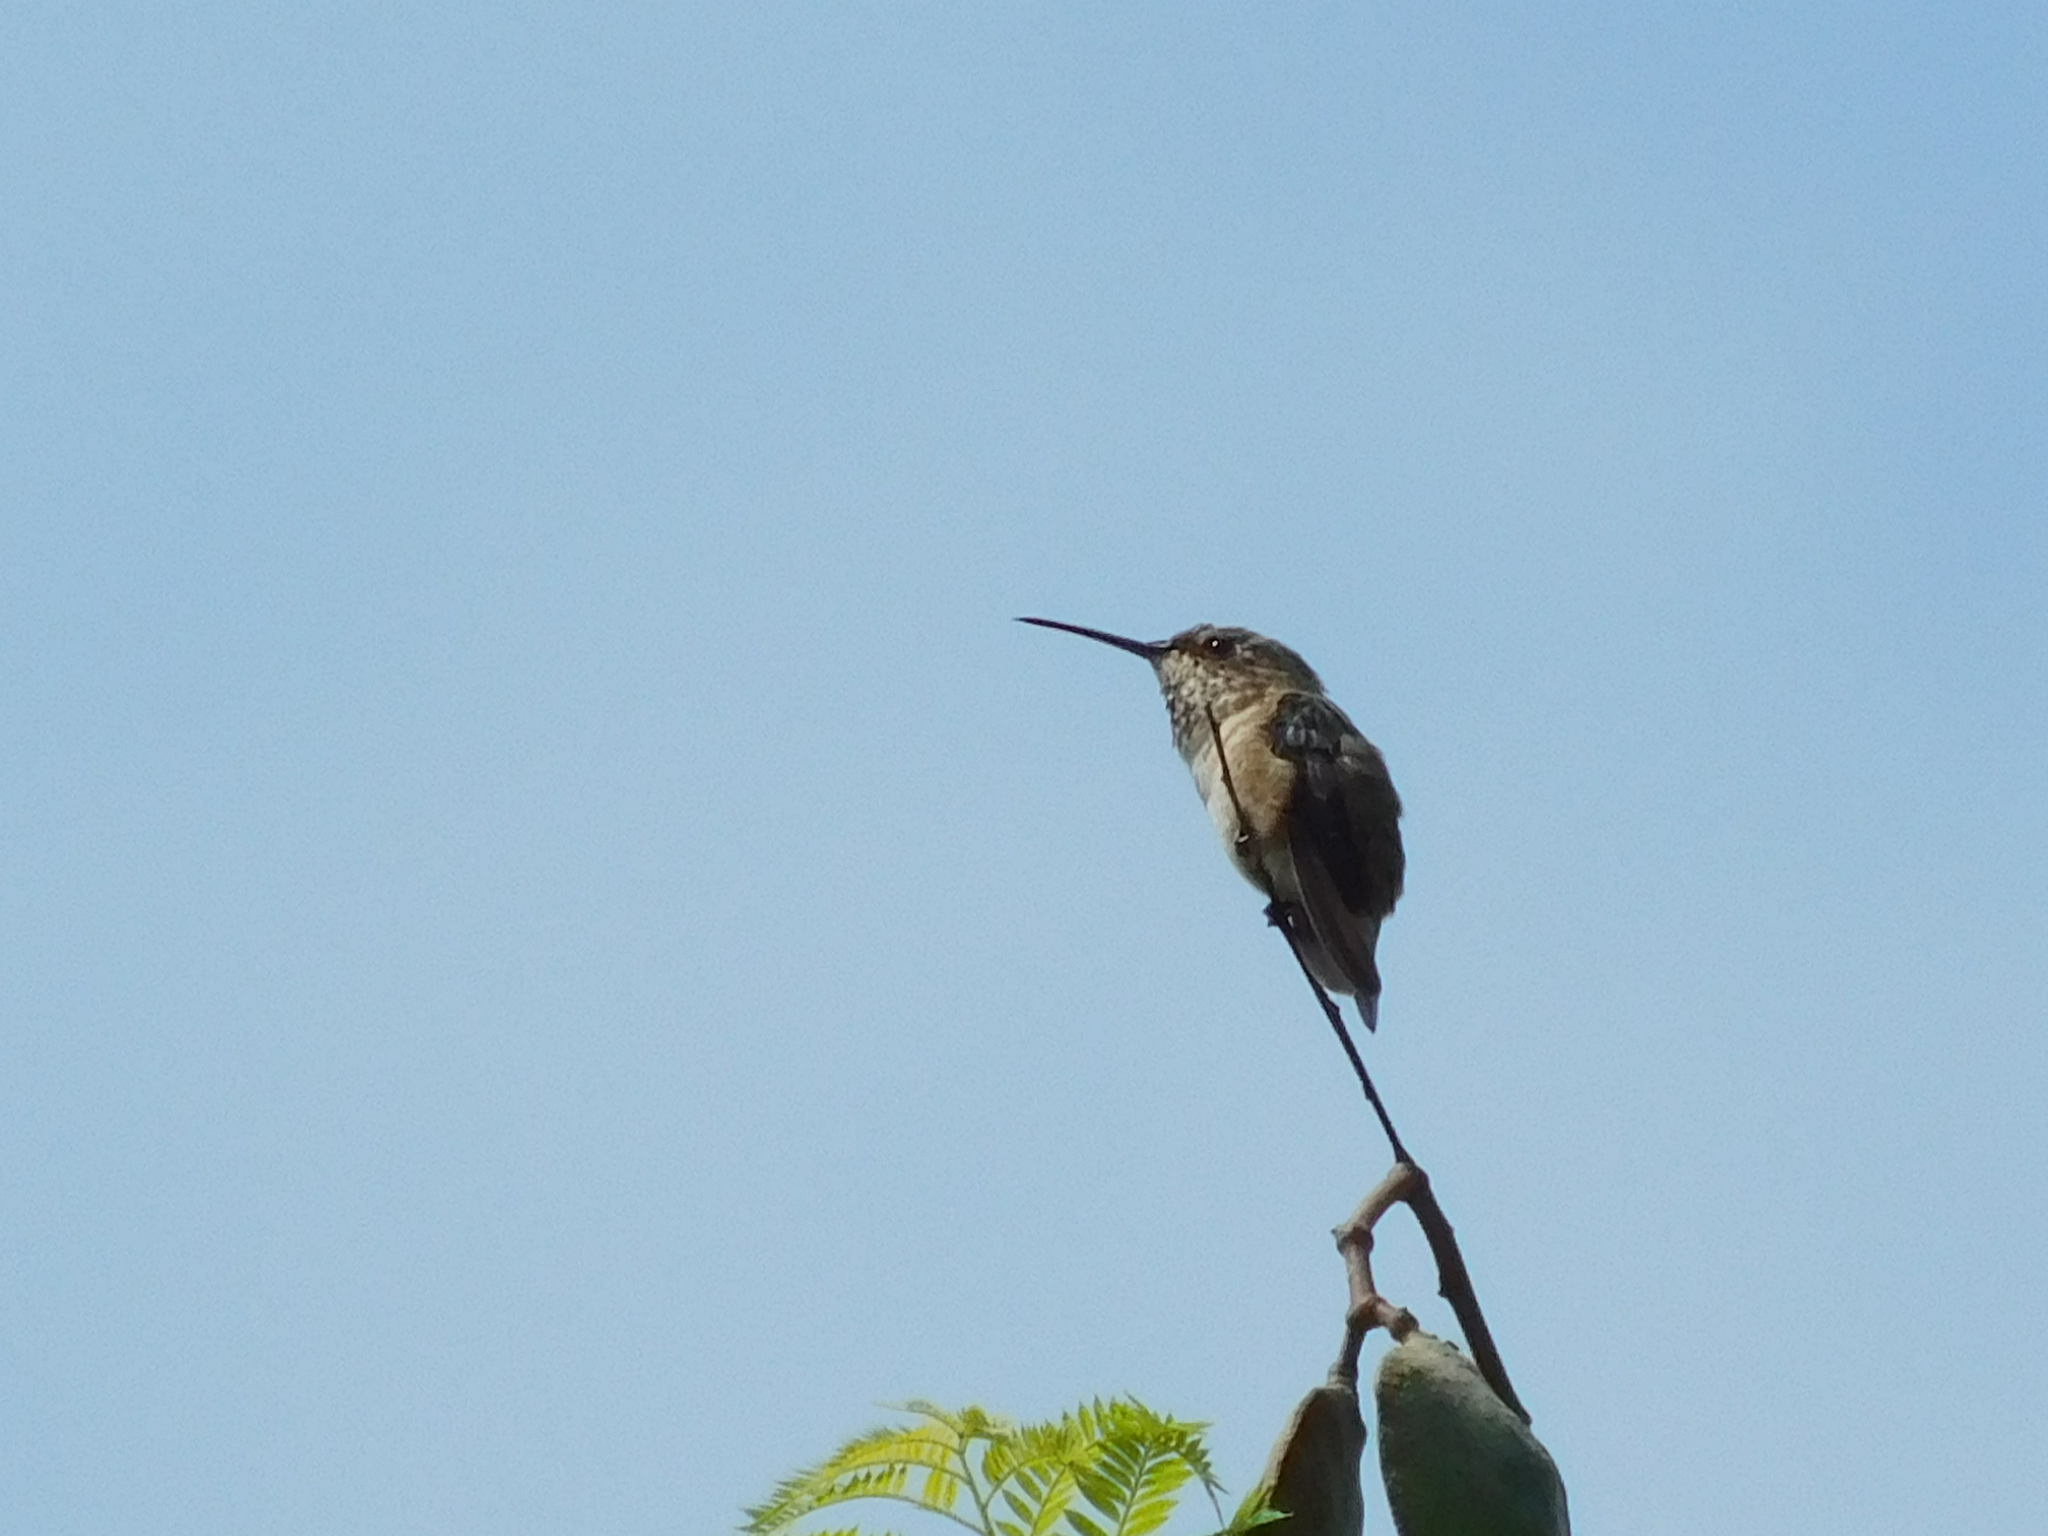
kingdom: Animalia
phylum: Chordata
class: Aves
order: Apodiformes
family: Trochilidae
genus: Selasphorus
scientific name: Selasphorus sasin
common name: Allen's hummingbird
